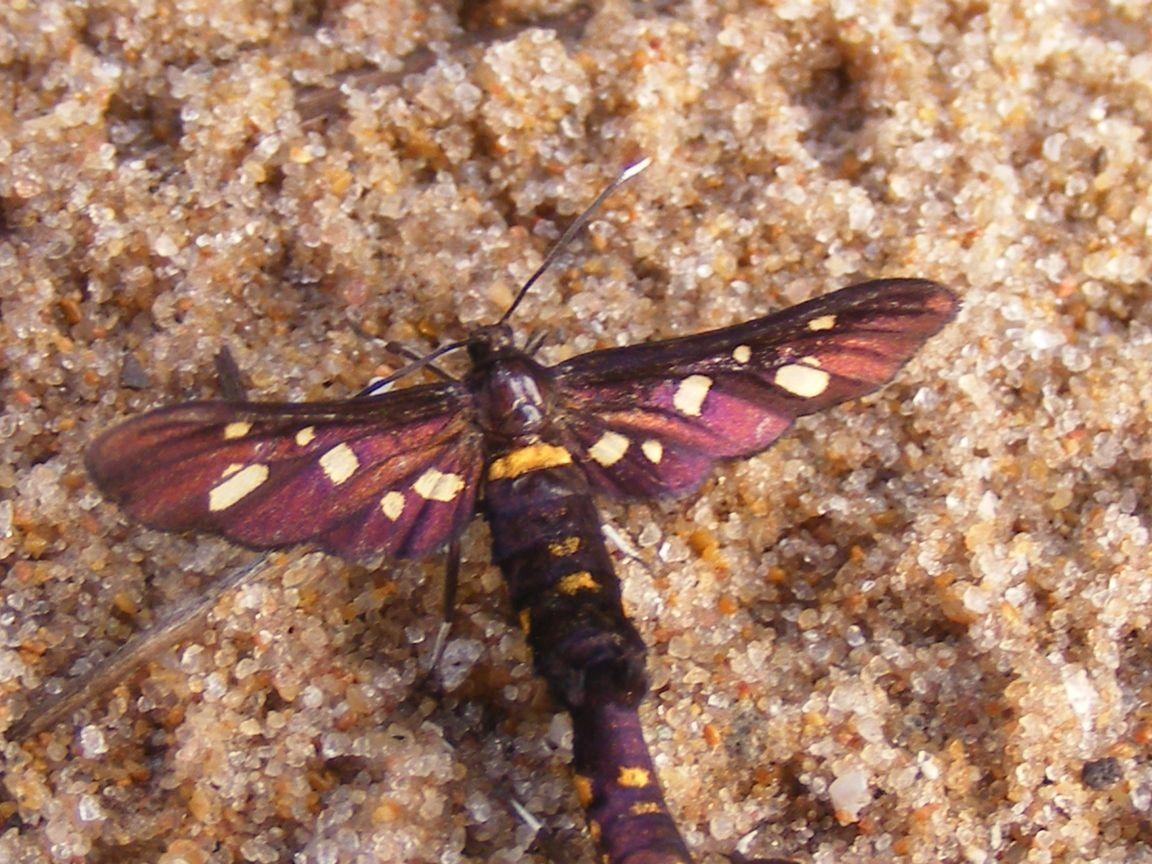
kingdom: Animalia
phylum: Arthropoda
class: Insecta
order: Lepidoptera
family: Erebidae
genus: Hampsonata
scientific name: Hampsonata xaixaia
